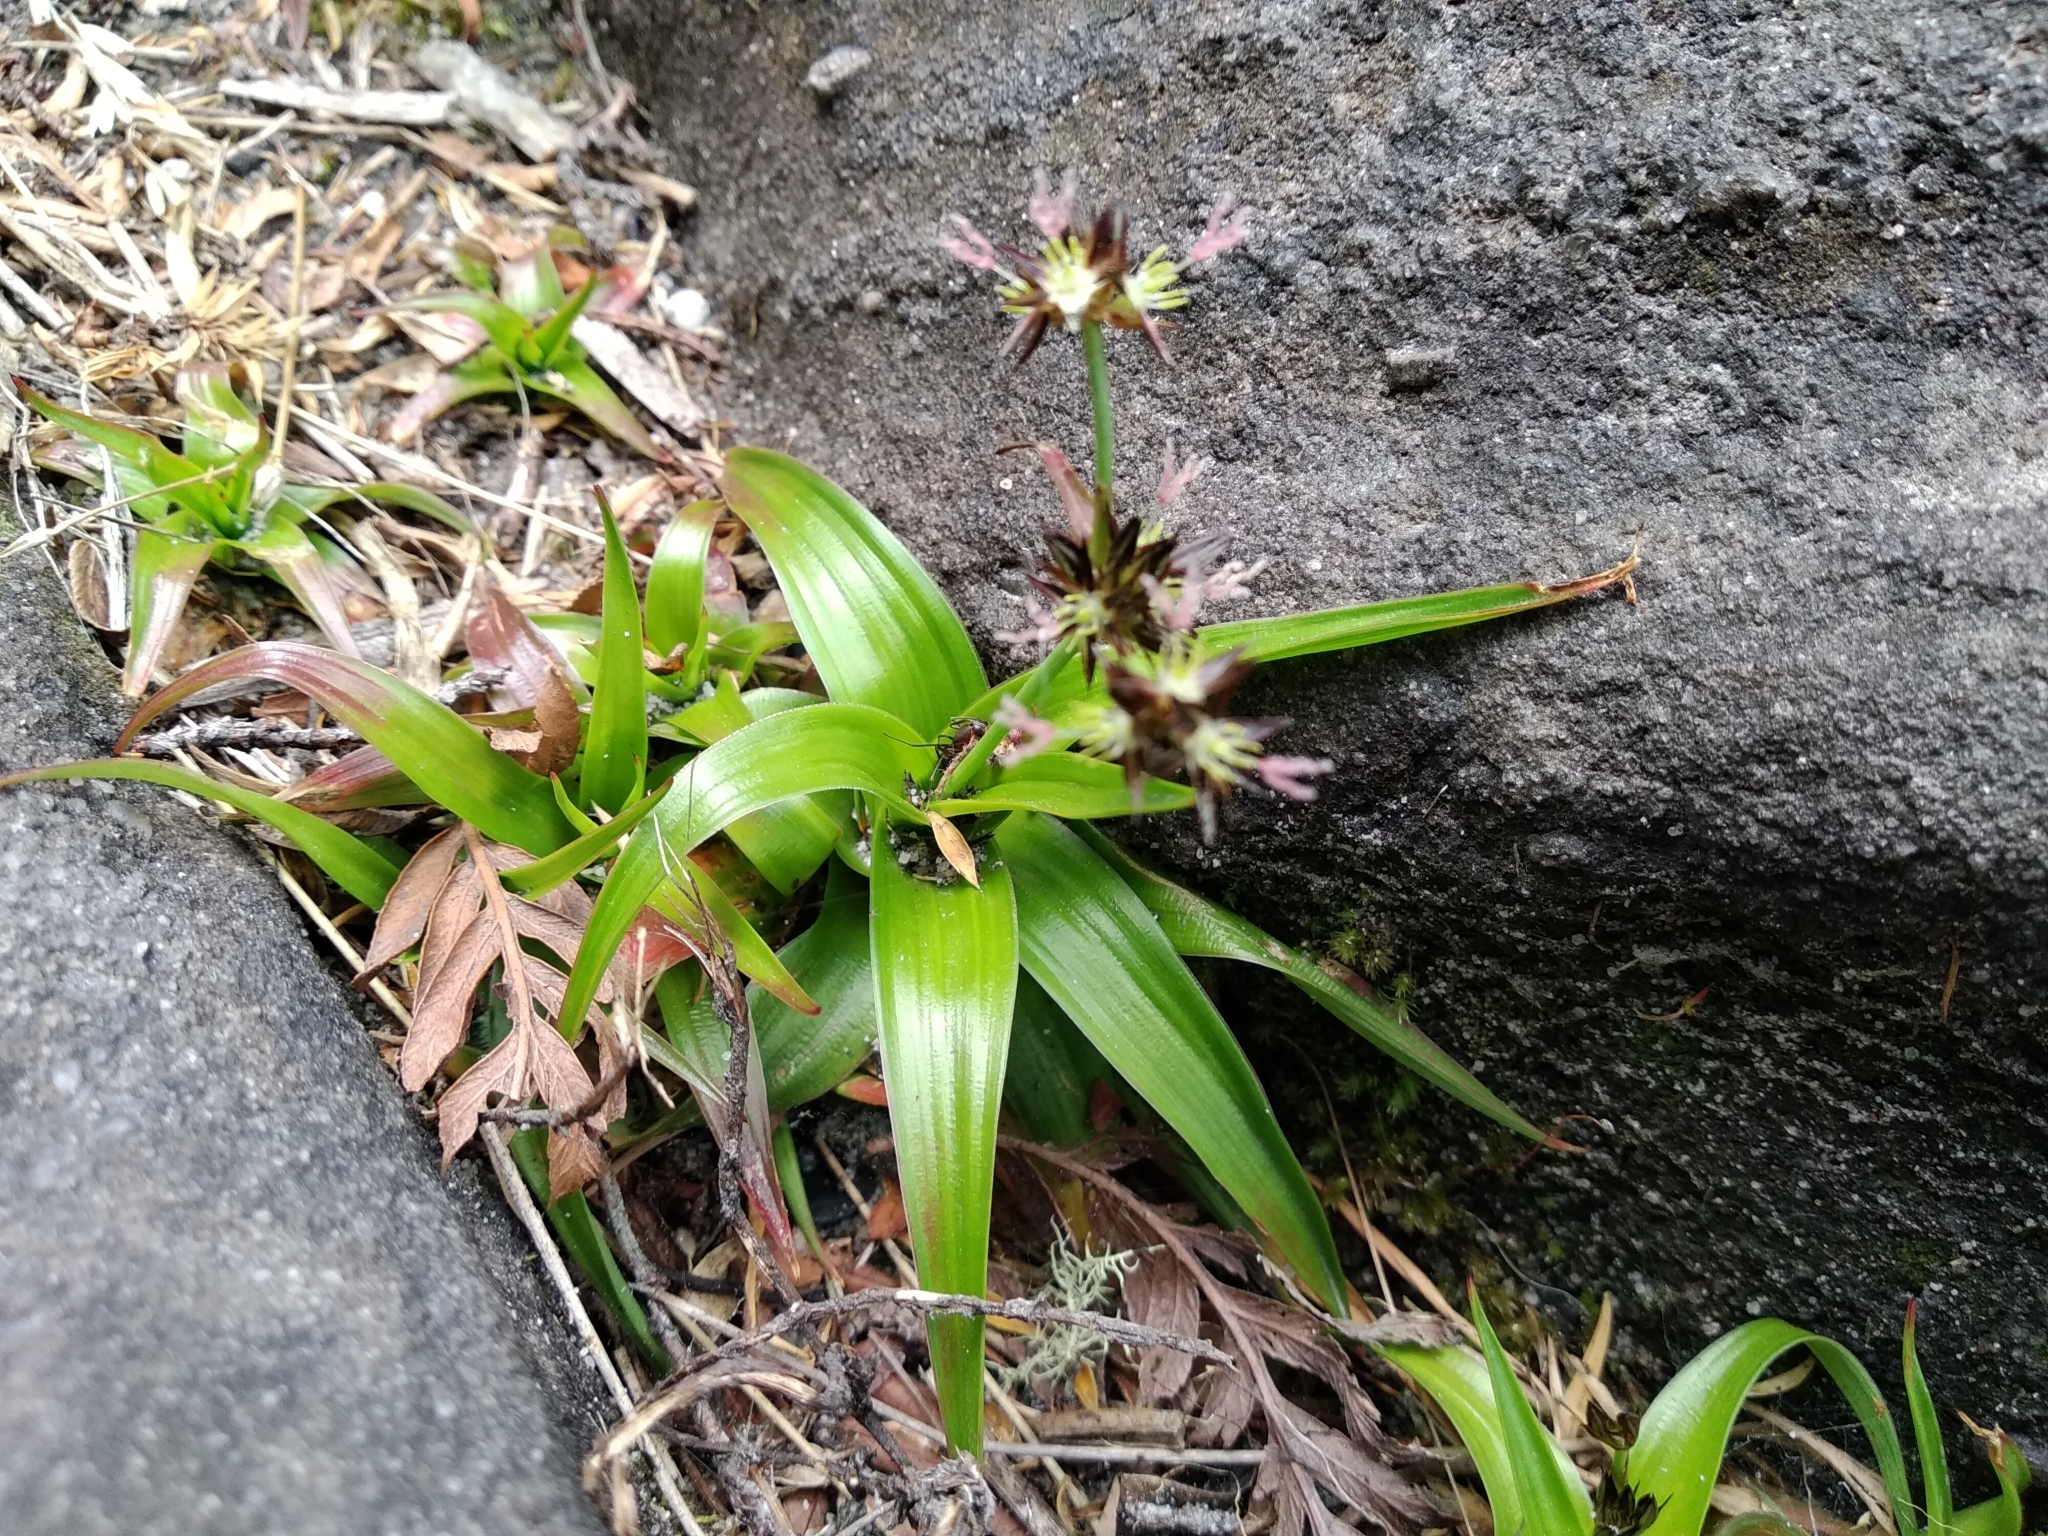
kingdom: Plantae
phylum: Tracheophyta
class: Liliopsida
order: Poales
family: Juncaceae
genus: Juncus
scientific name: Juncus lomatophyllus
